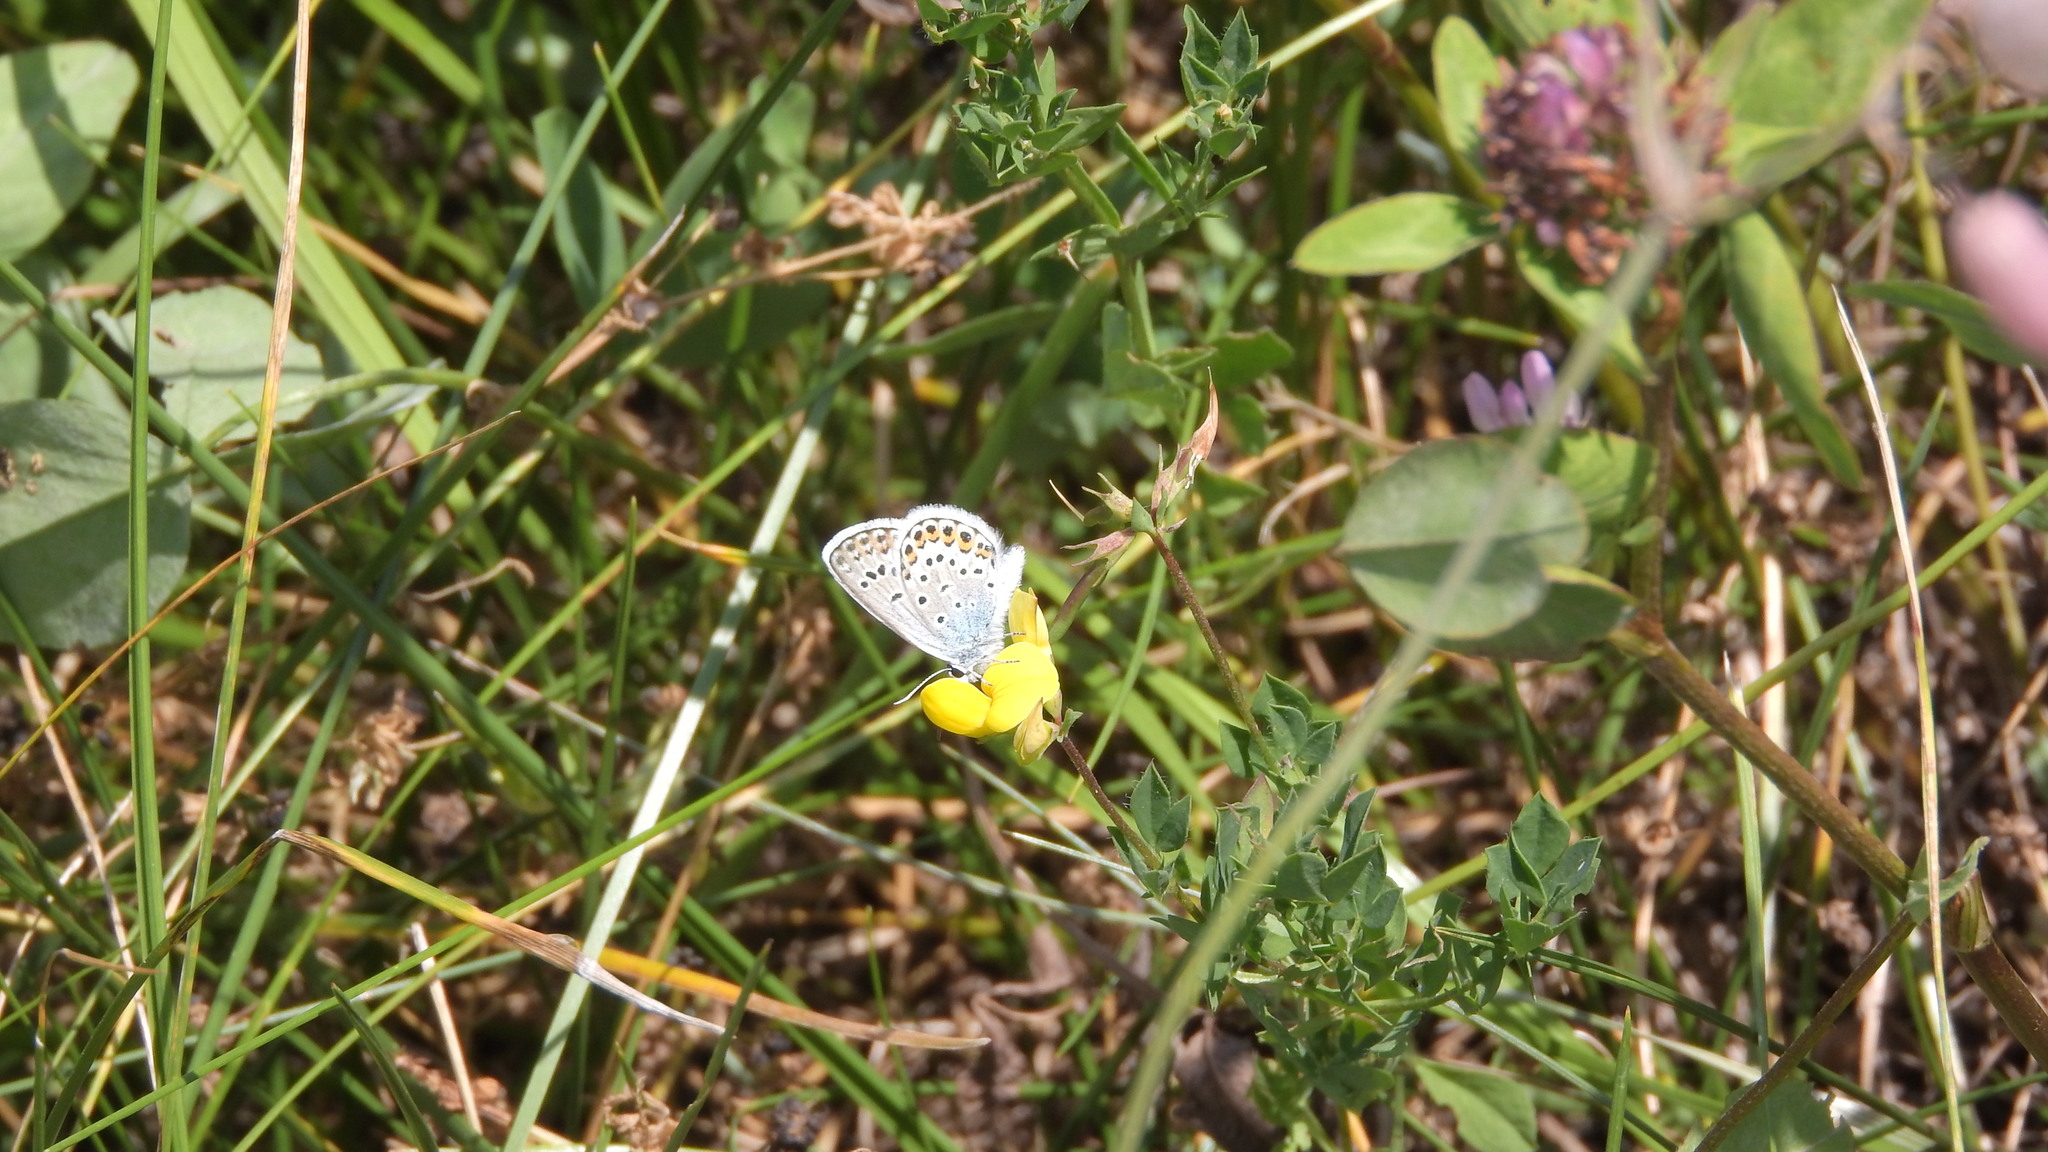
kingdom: Animalia
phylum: Arthropoda
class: Insecta
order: Lepidoptera
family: Lycaenidae
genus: Plebejus
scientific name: Plebejus argus
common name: Silver-studded blue
